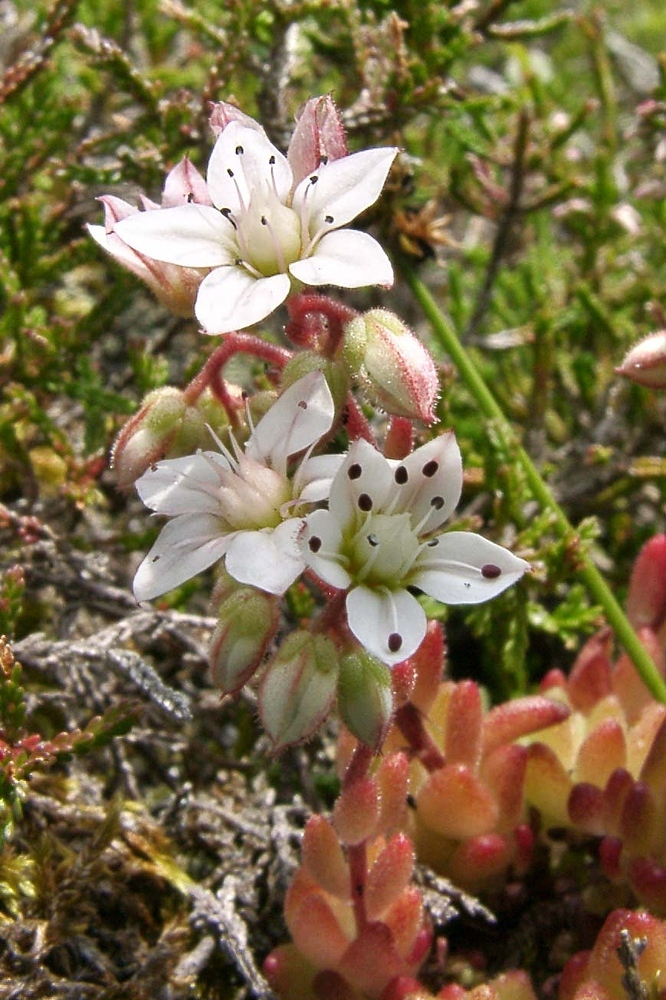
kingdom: Plantae
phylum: Tracheophyta
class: Magnoliopsida
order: Saxifragales
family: Crassulaceae
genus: Sedum
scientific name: Sedum hirsutum
